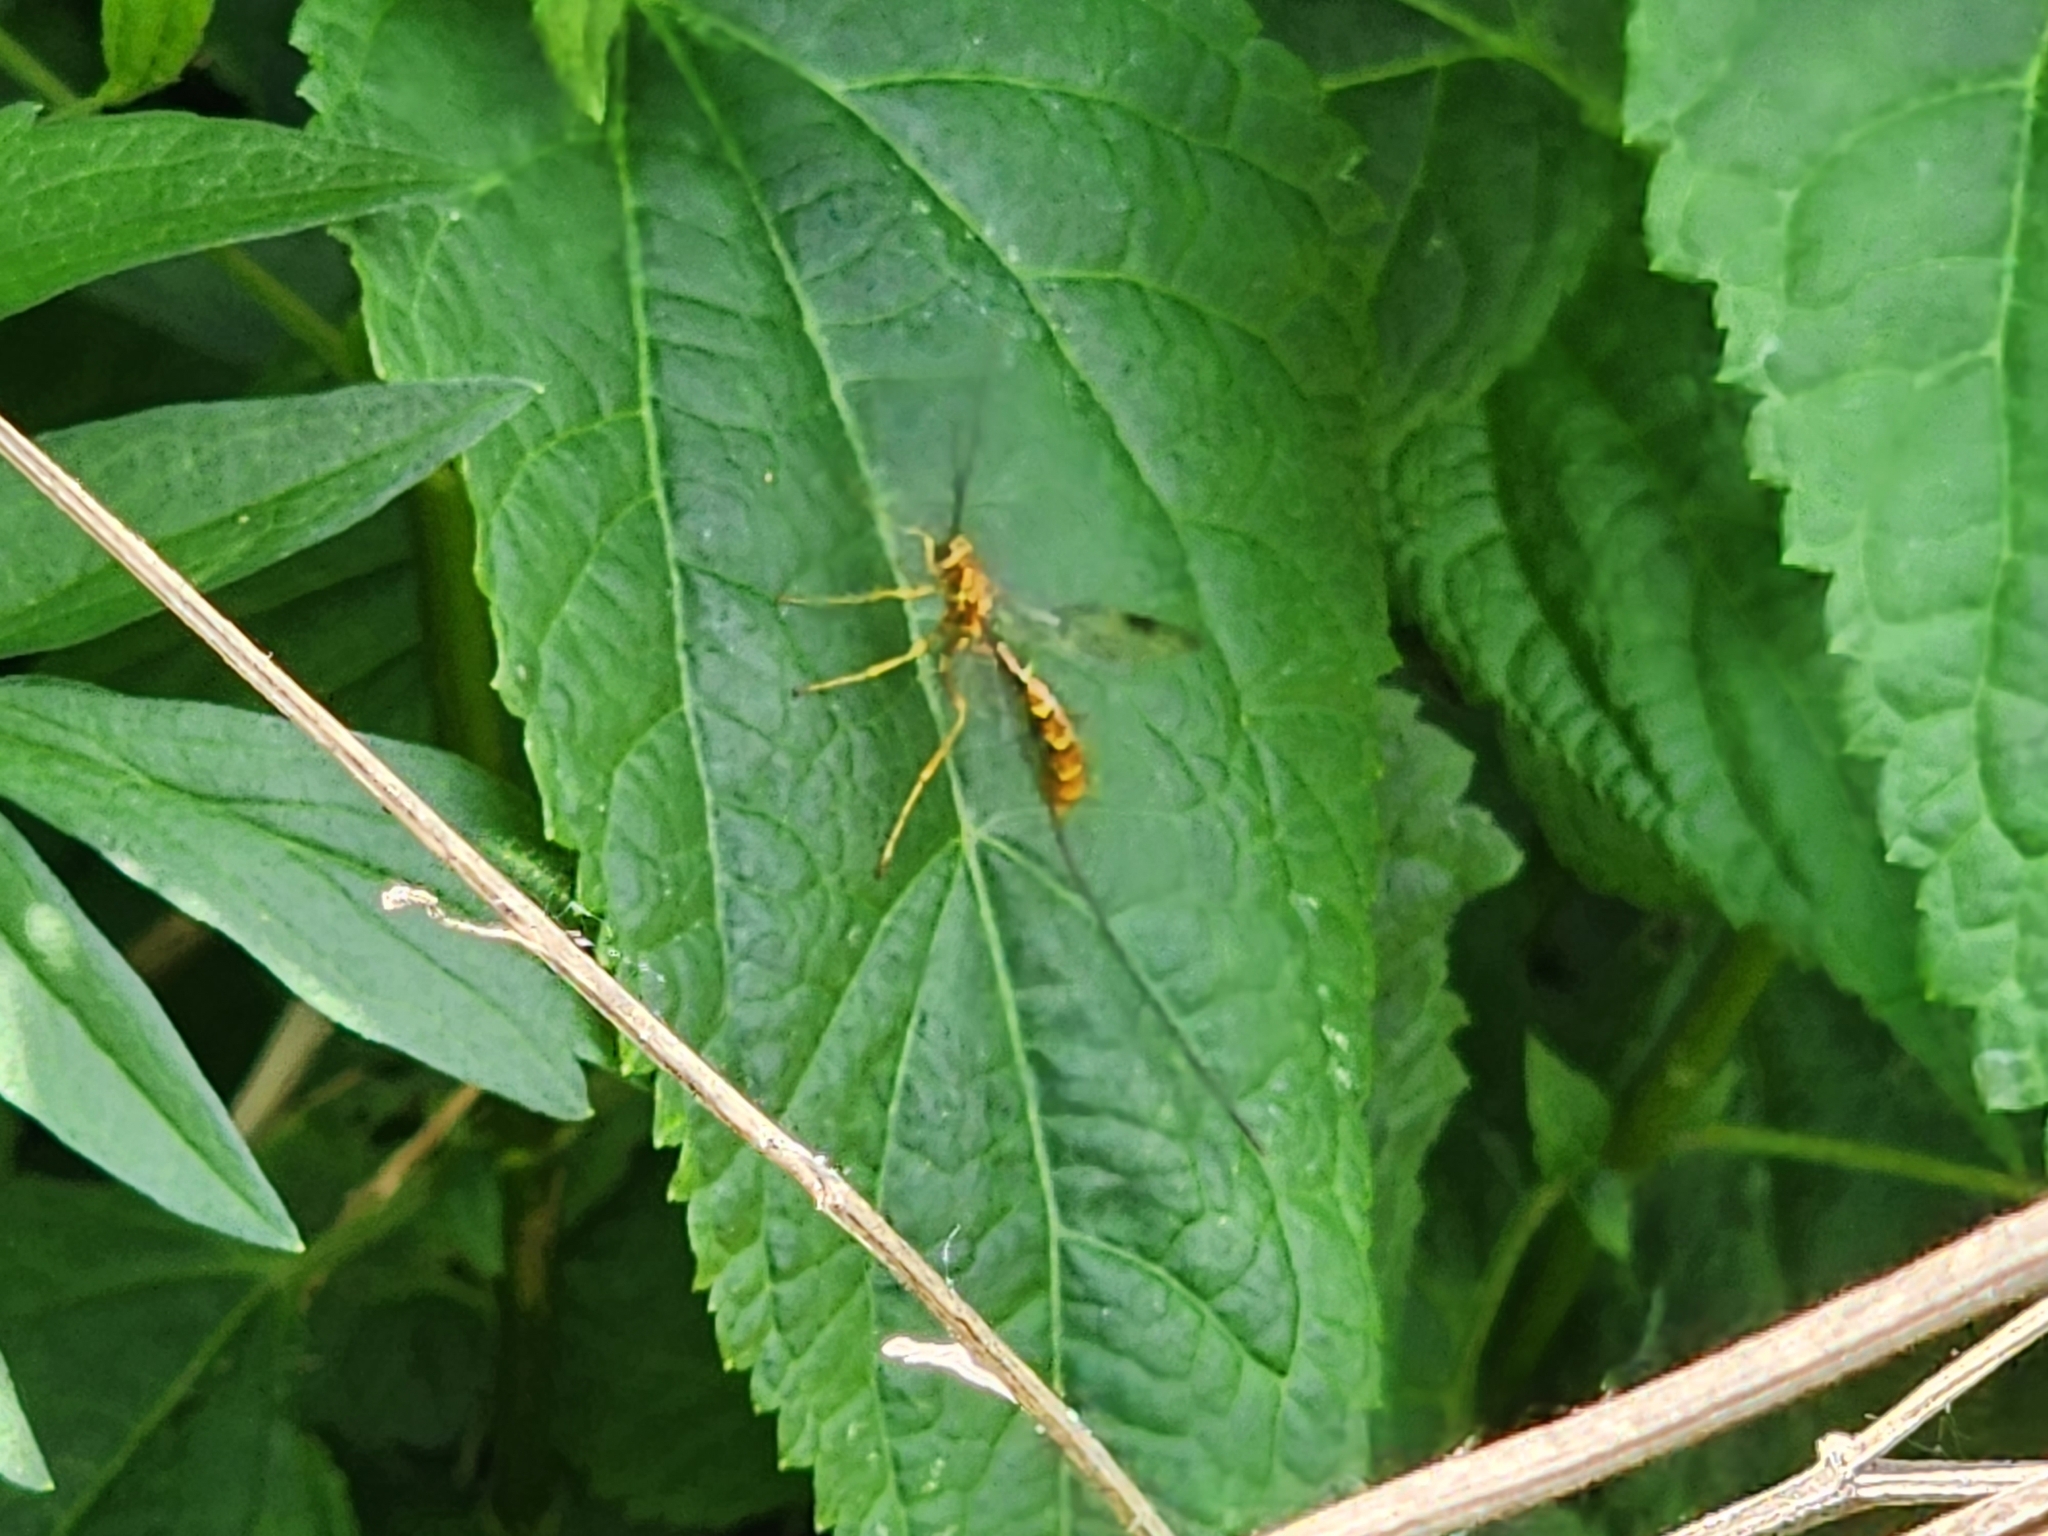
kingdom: Animalia
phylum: Arthropoda
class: Insecta
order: Hymenoptera
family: Ichneumonidae
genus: Megarhyssa
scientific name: Megarhyssa greenei
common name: Greene's giant ichneumonid wasp
